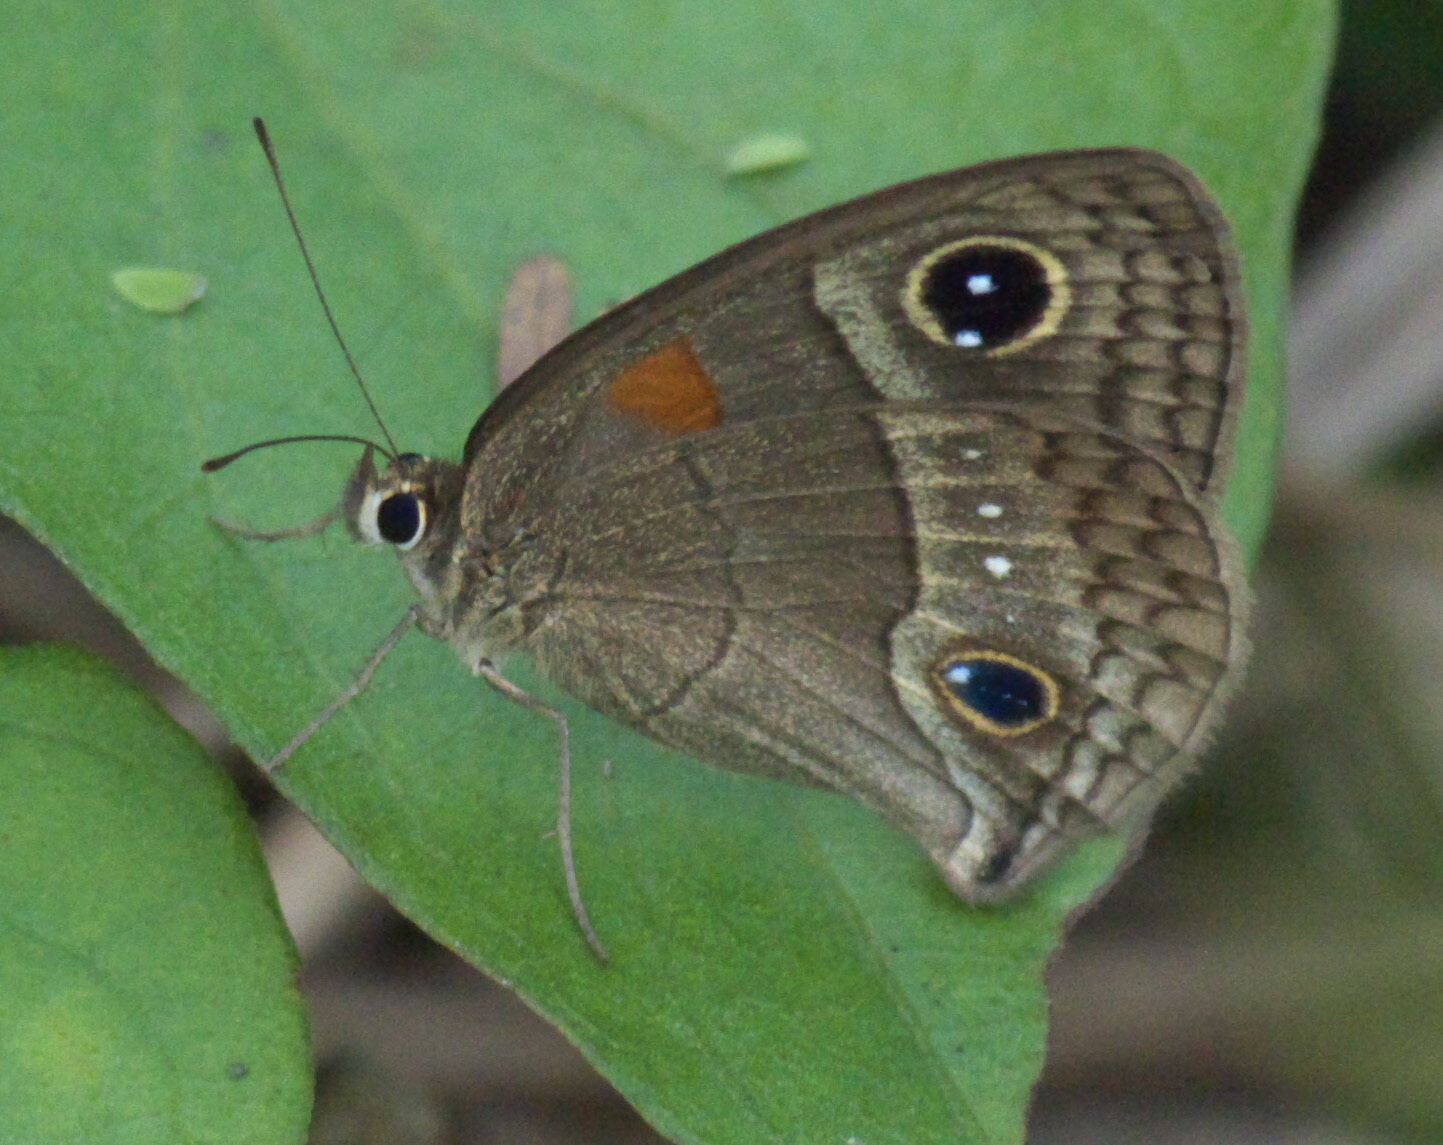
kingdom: Animalia
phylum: Arthropoda
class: Insecta
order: Lepidoptera
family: Nymphalidae
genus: Calisto
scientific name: Calisto herophile
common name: Cuban calisto
